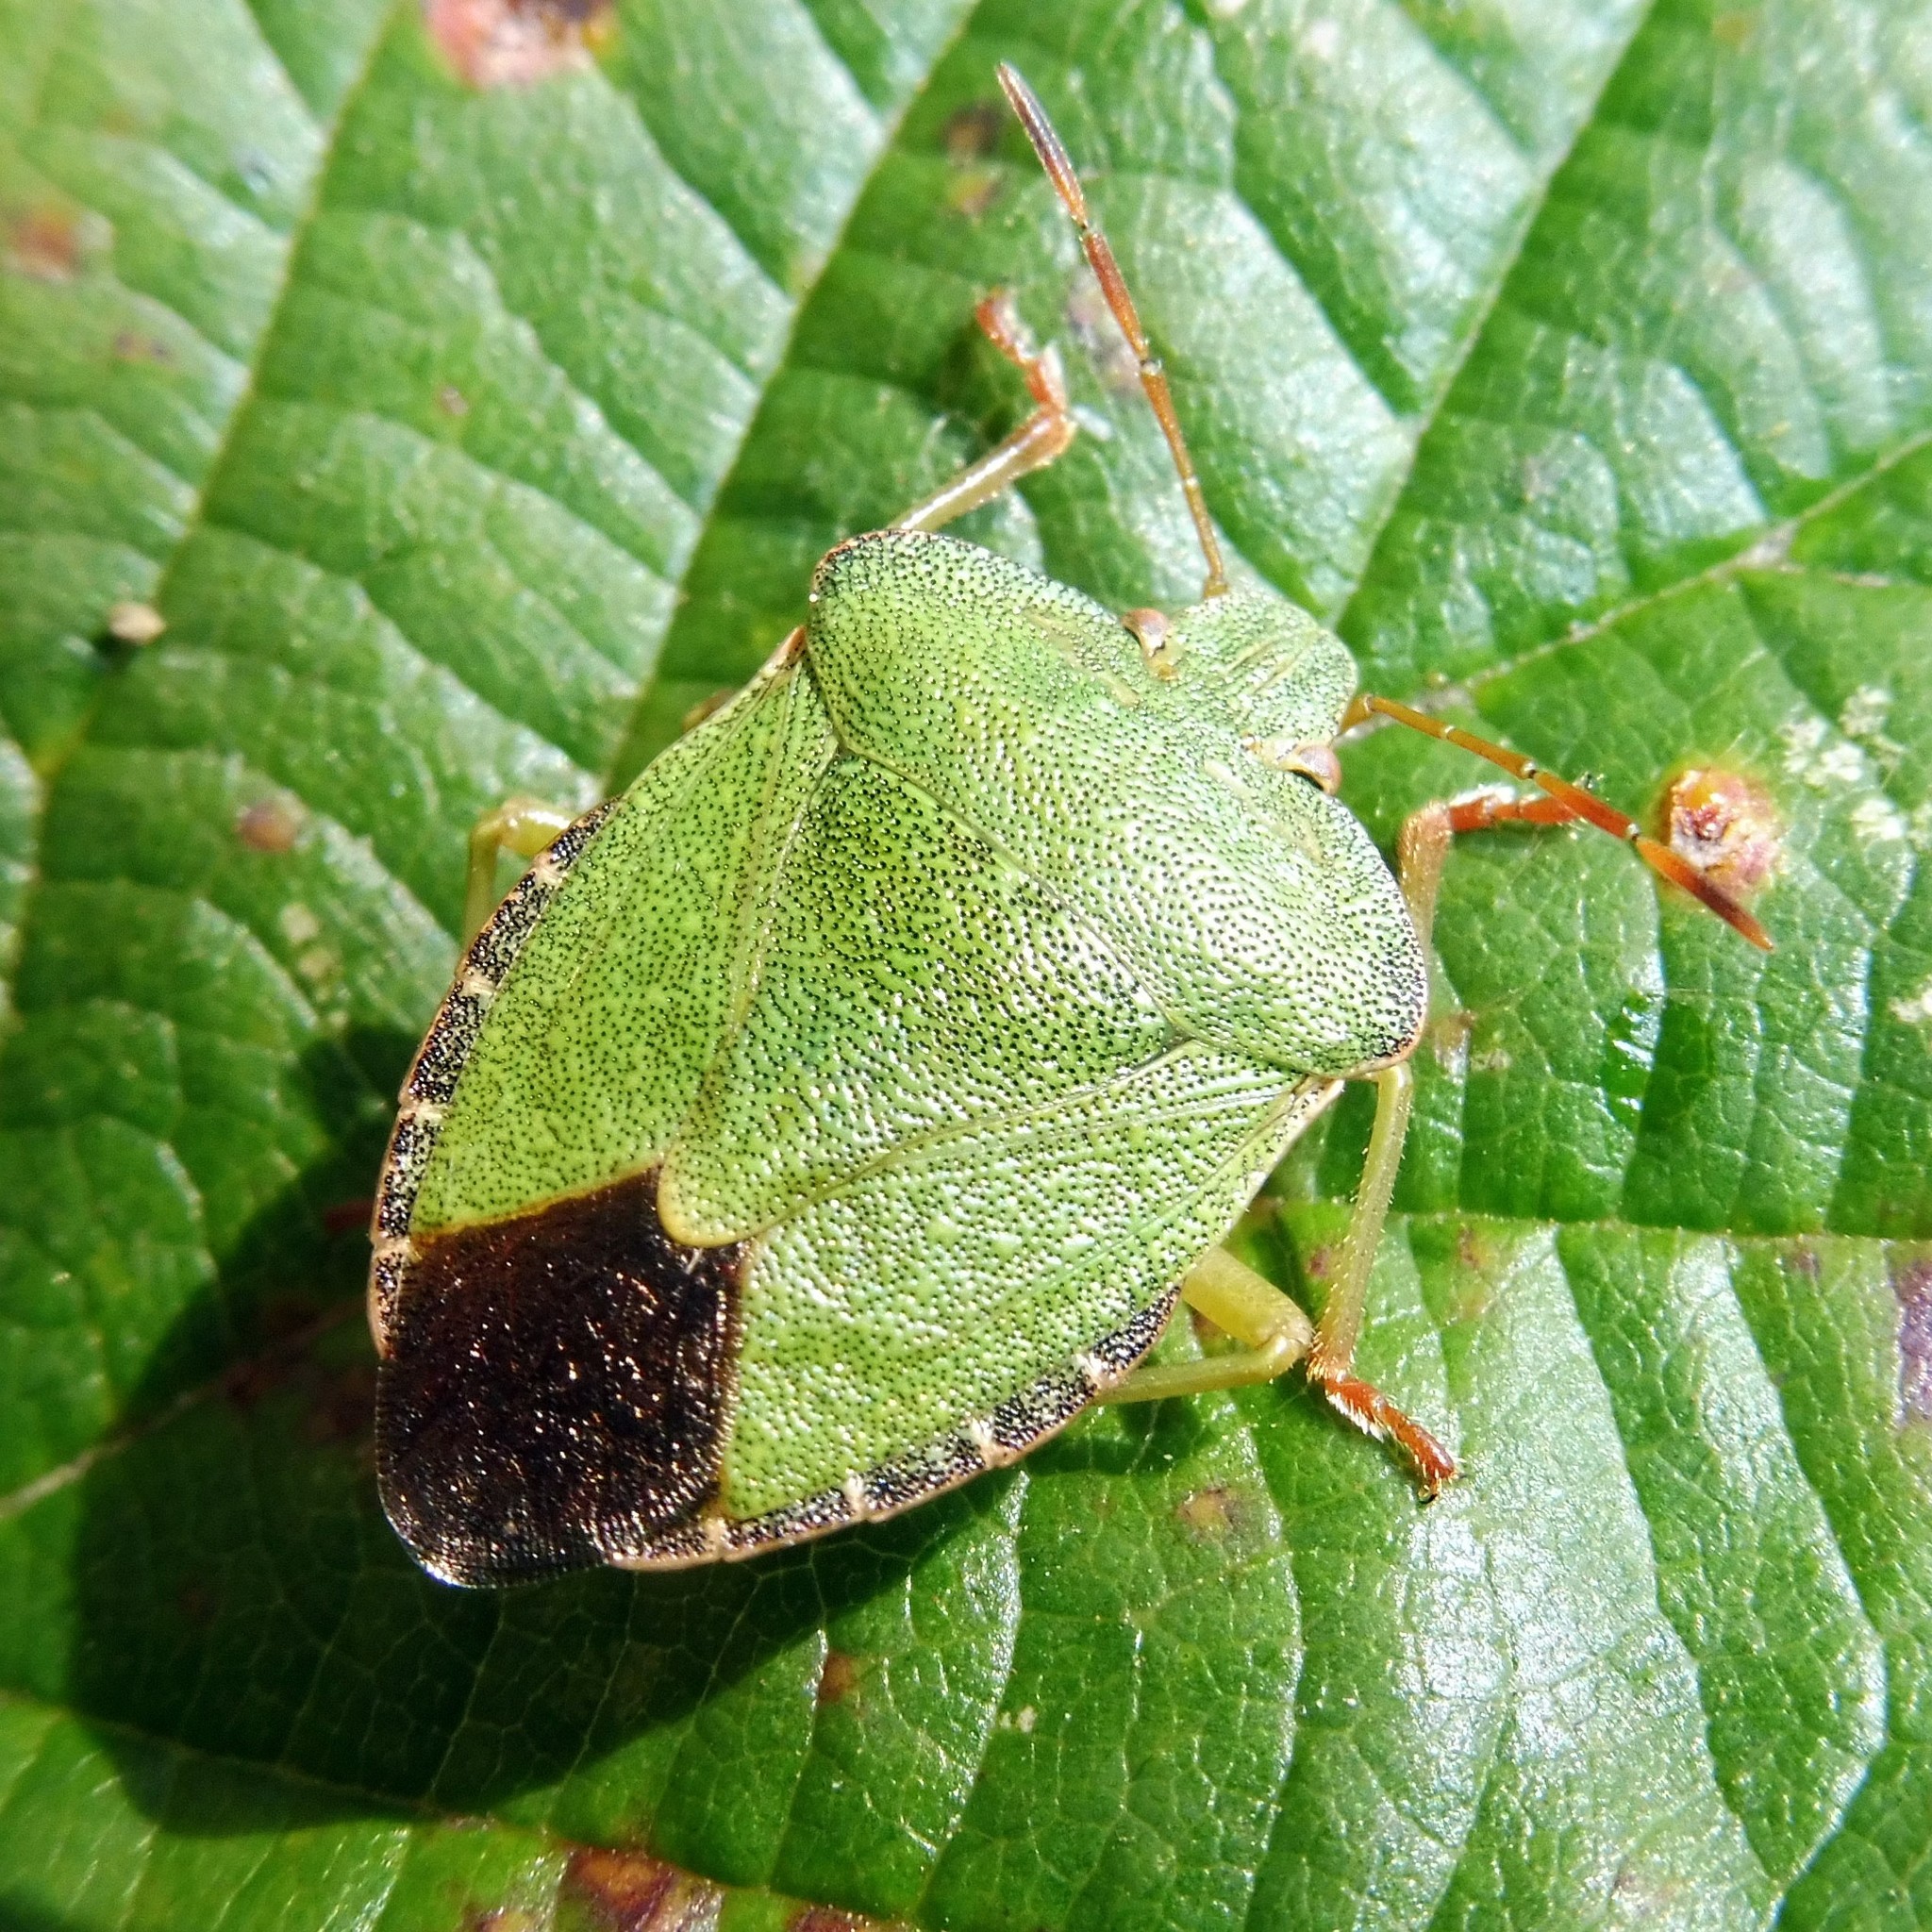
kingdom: Animalia
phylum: Arthropoda
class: Insecta
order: Hemiptera
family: Pentatomidae
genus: Palomena
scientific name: Palomena prasina
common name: Green shieldbug
